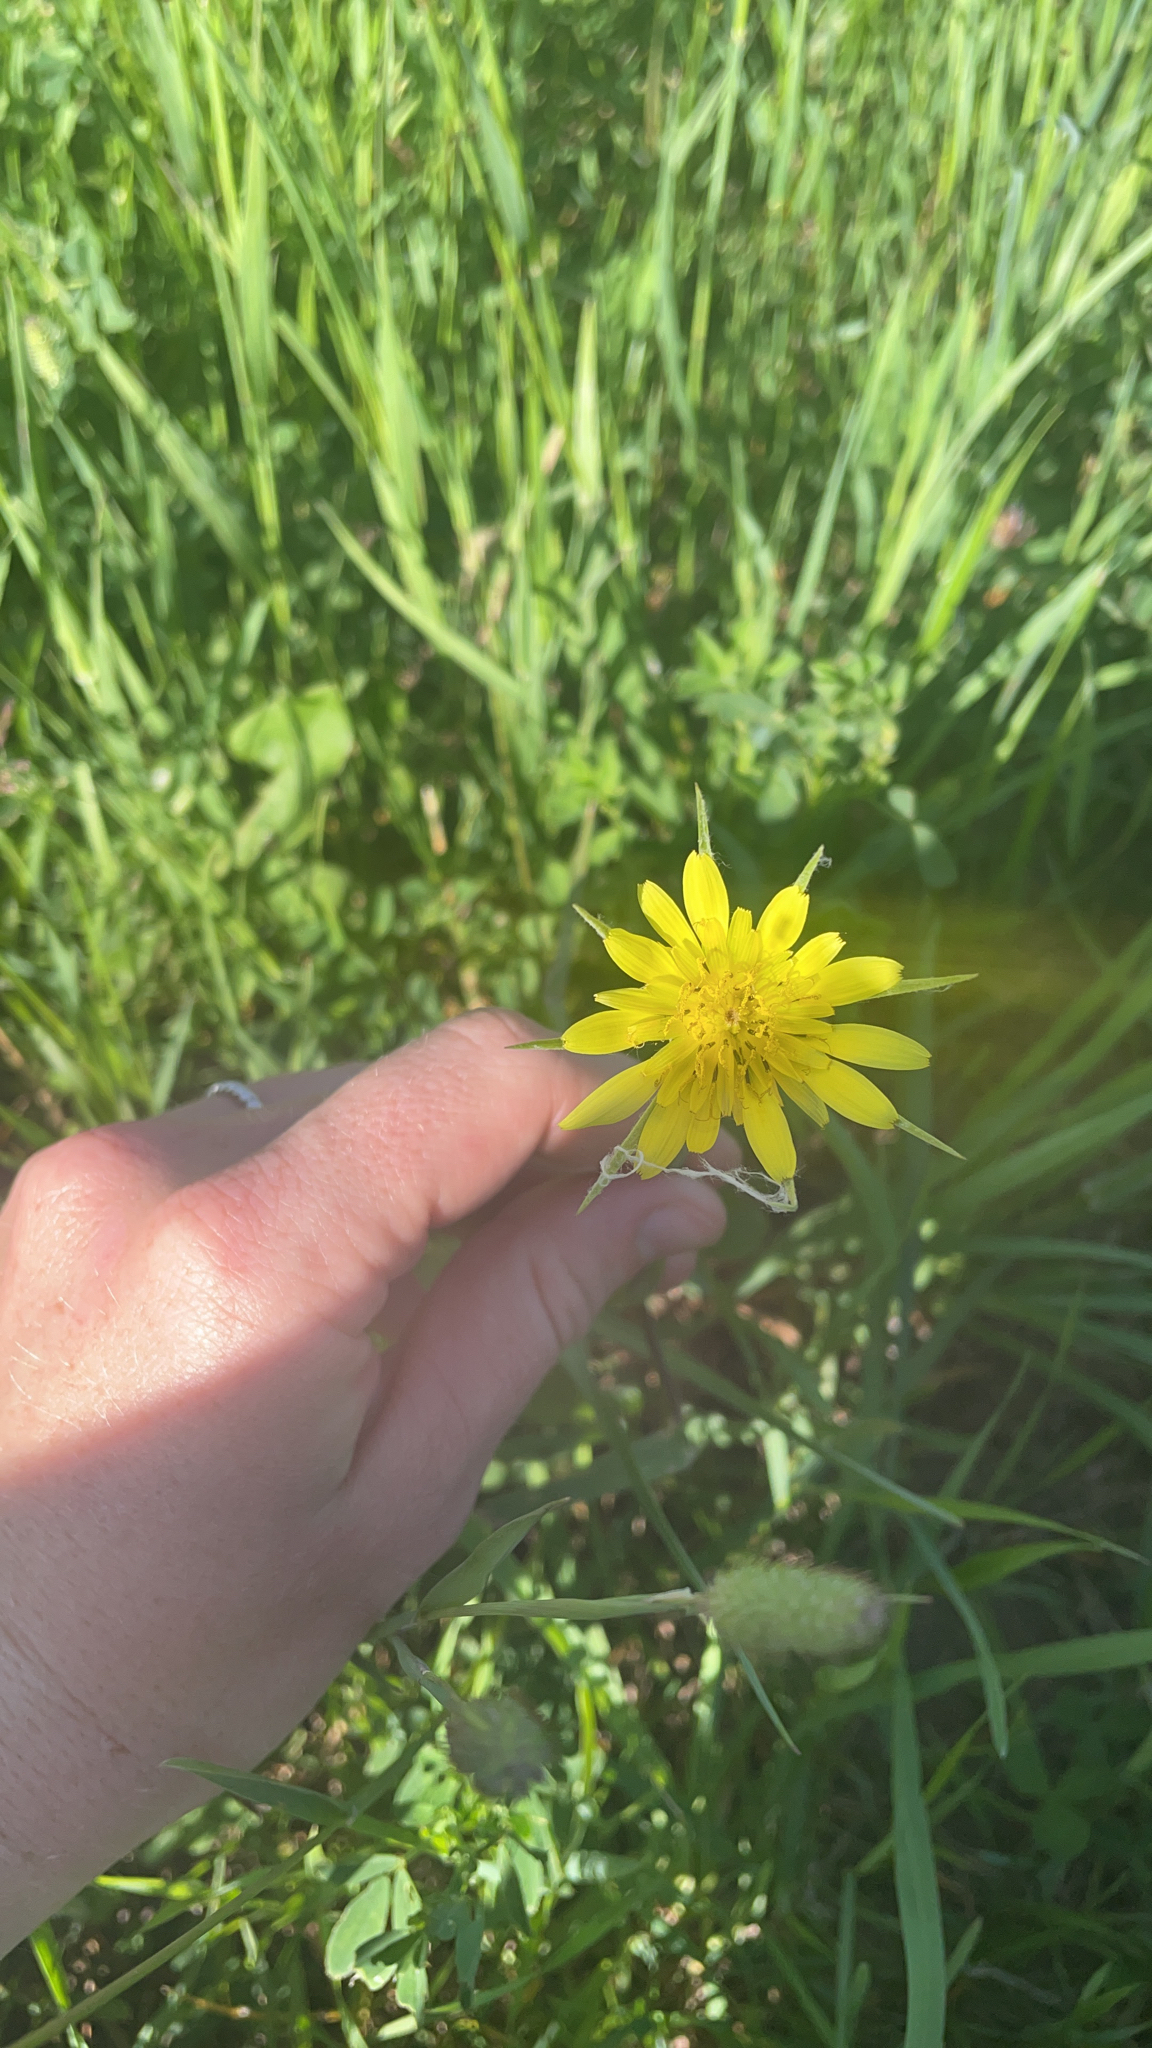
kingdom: Plantae
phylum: Tracheophyta
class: Magnoliopsida
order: Asterales
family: Asteraceae
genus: Tragopogon
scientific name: Tragopogon dubius
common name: Yellow salsify
